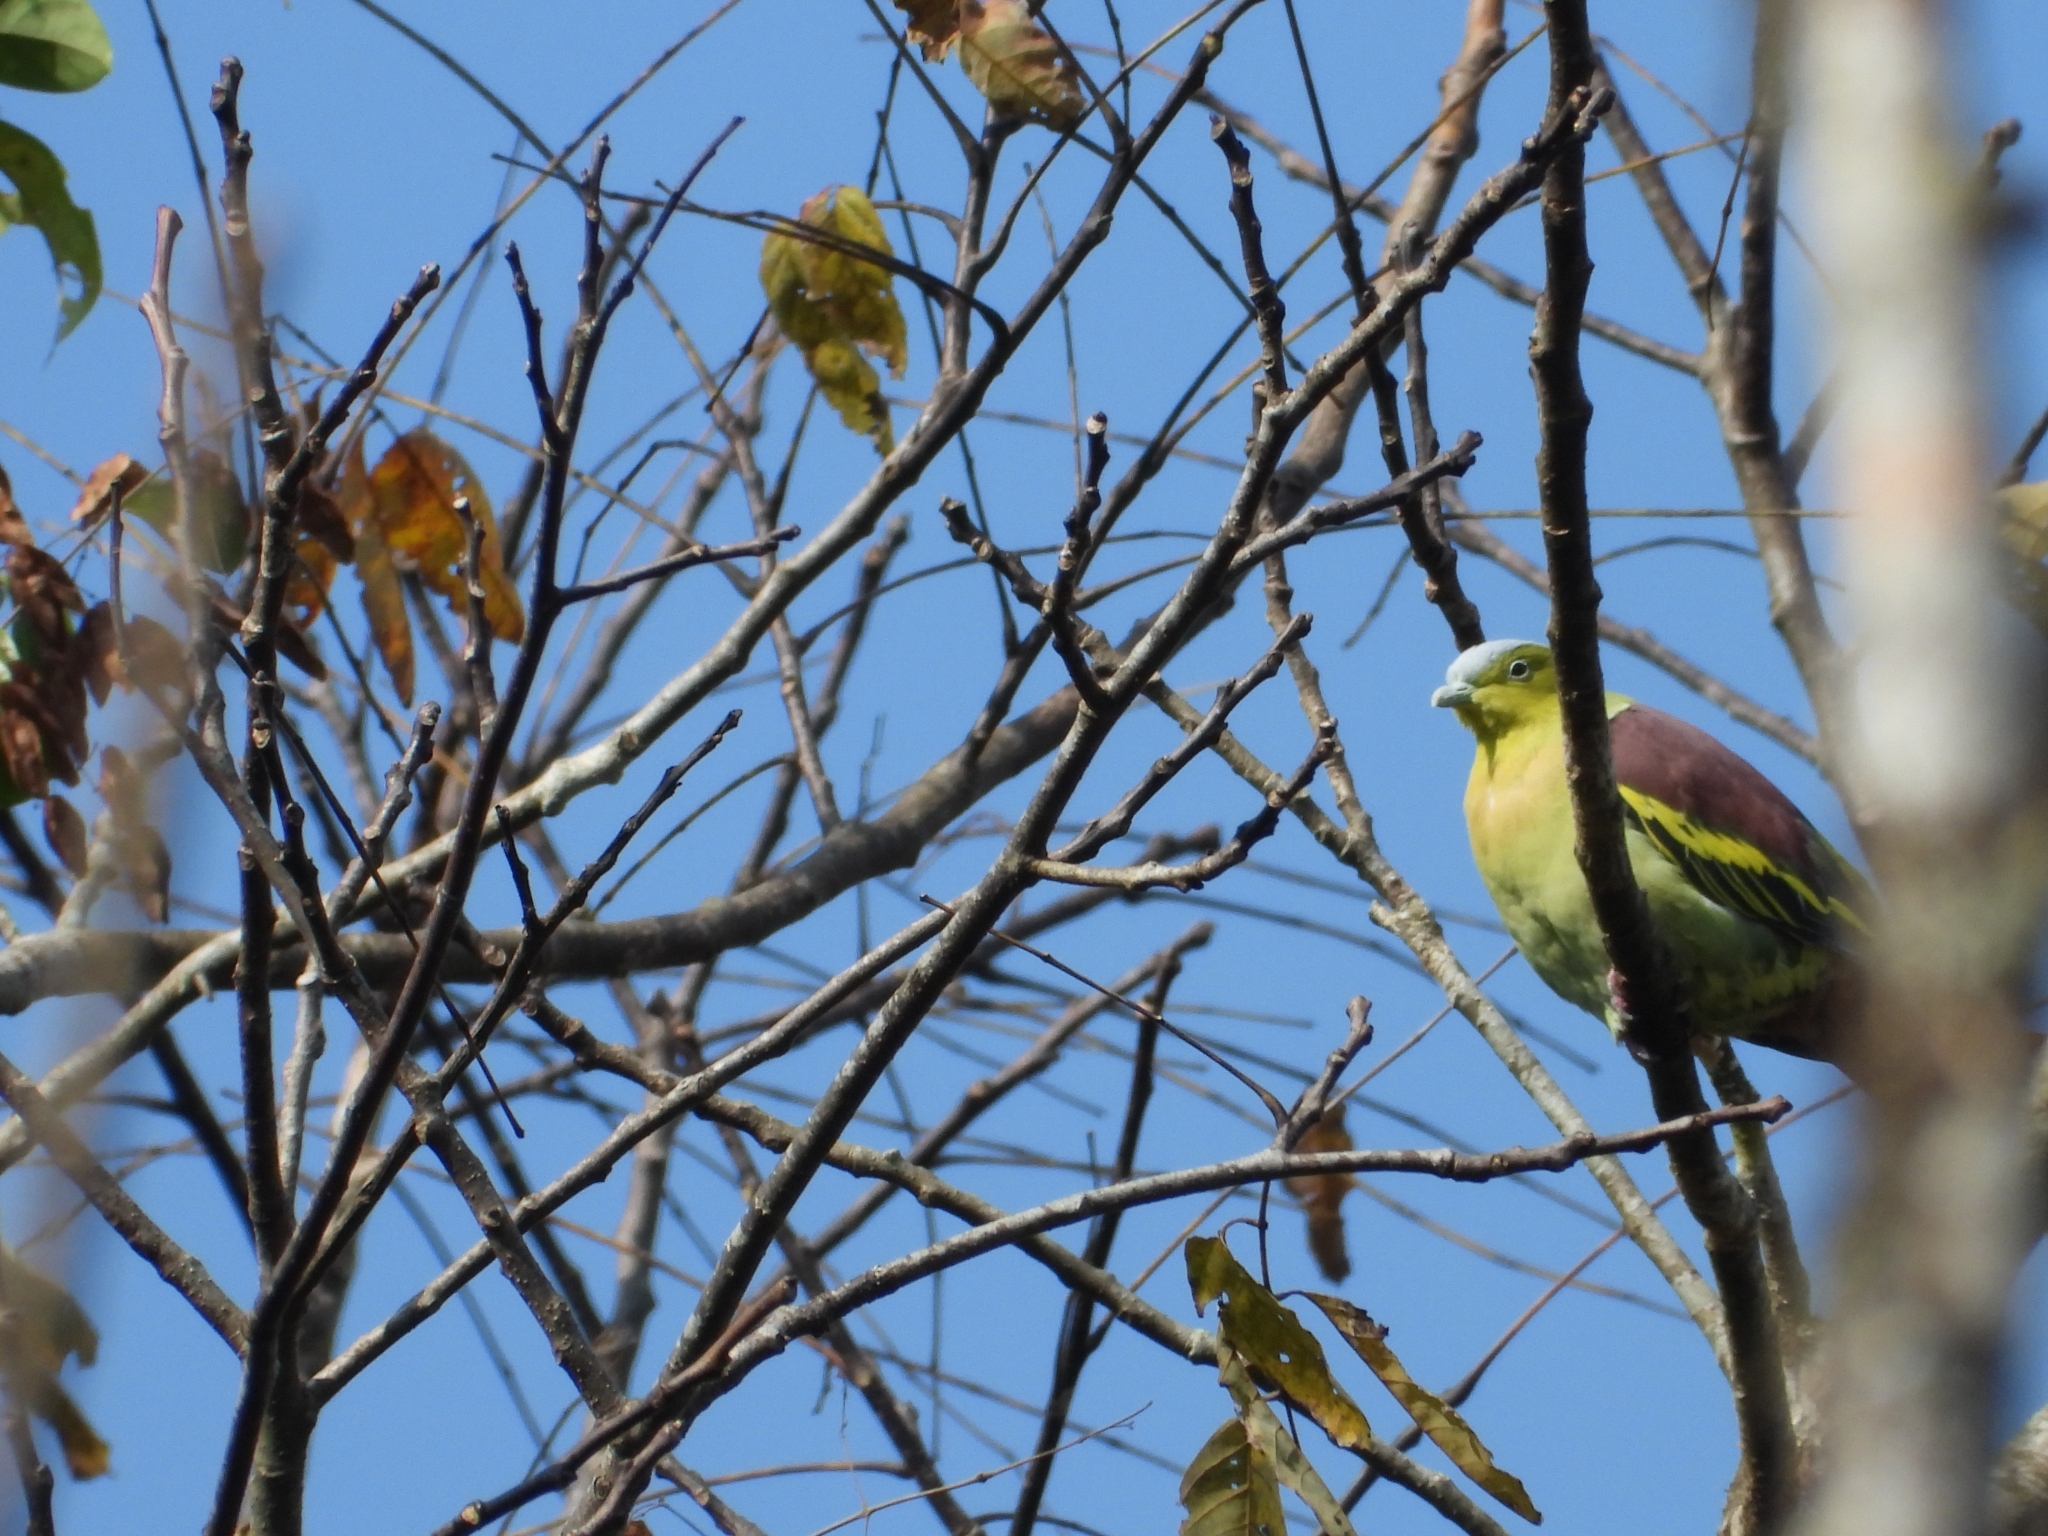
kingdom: Animalia
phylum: Chordata
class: Aves
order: Columbiformes
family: Columbidae
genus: Treron
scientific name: Treron phayrei
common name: Ashy-headed green pigeon
